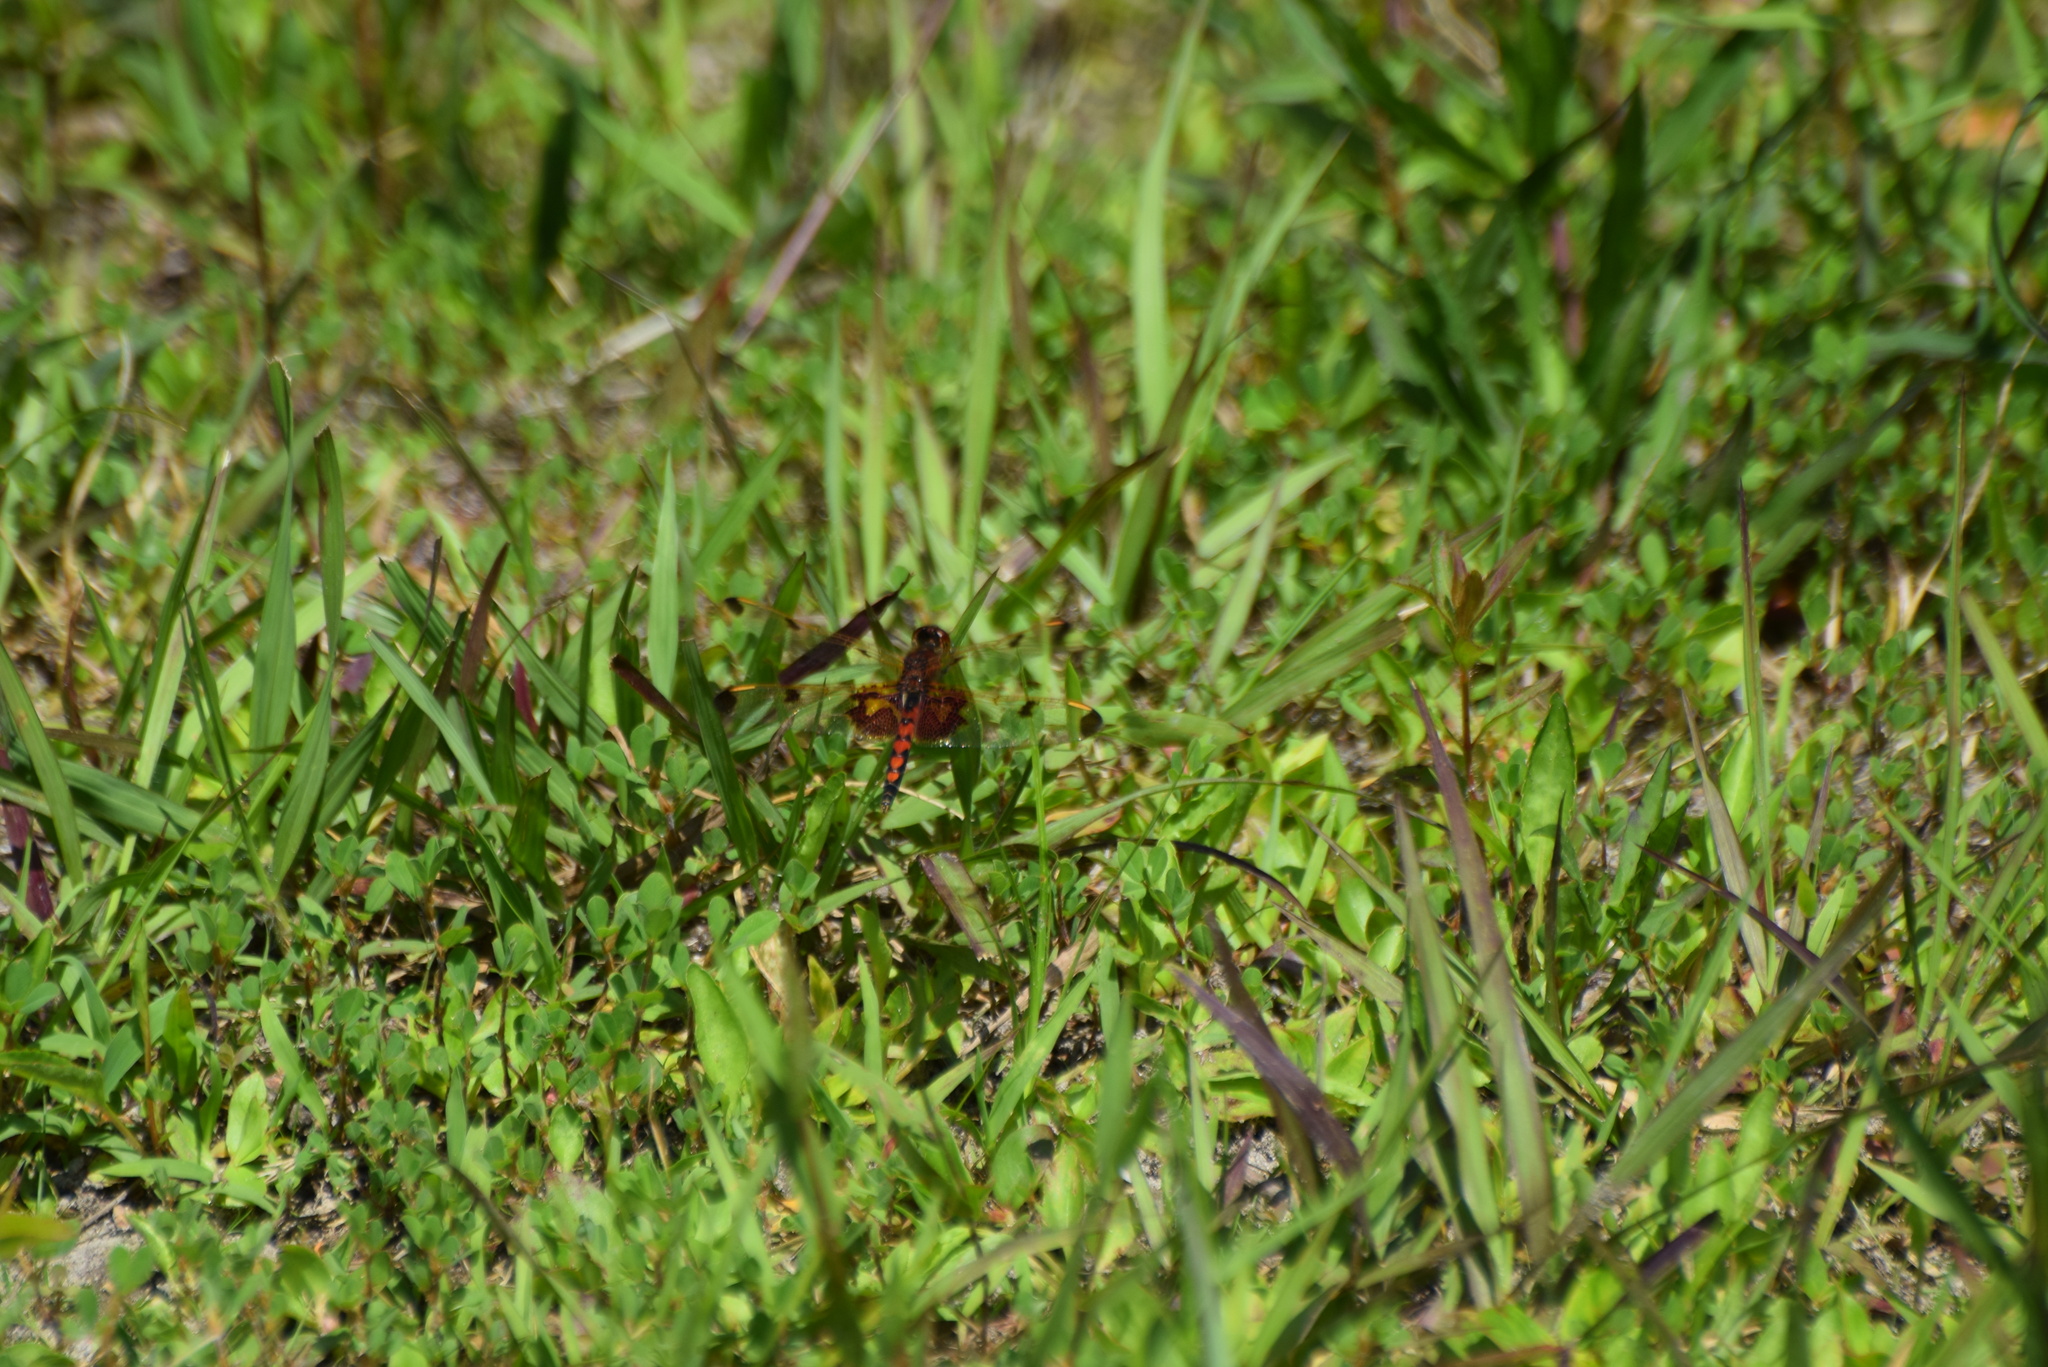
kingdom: Animalia
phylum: Arthropoda
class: Insecta
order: Odonata
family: Libellulidae
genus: Celithemis
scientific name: Celithemis elisa
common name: Calico pennant
